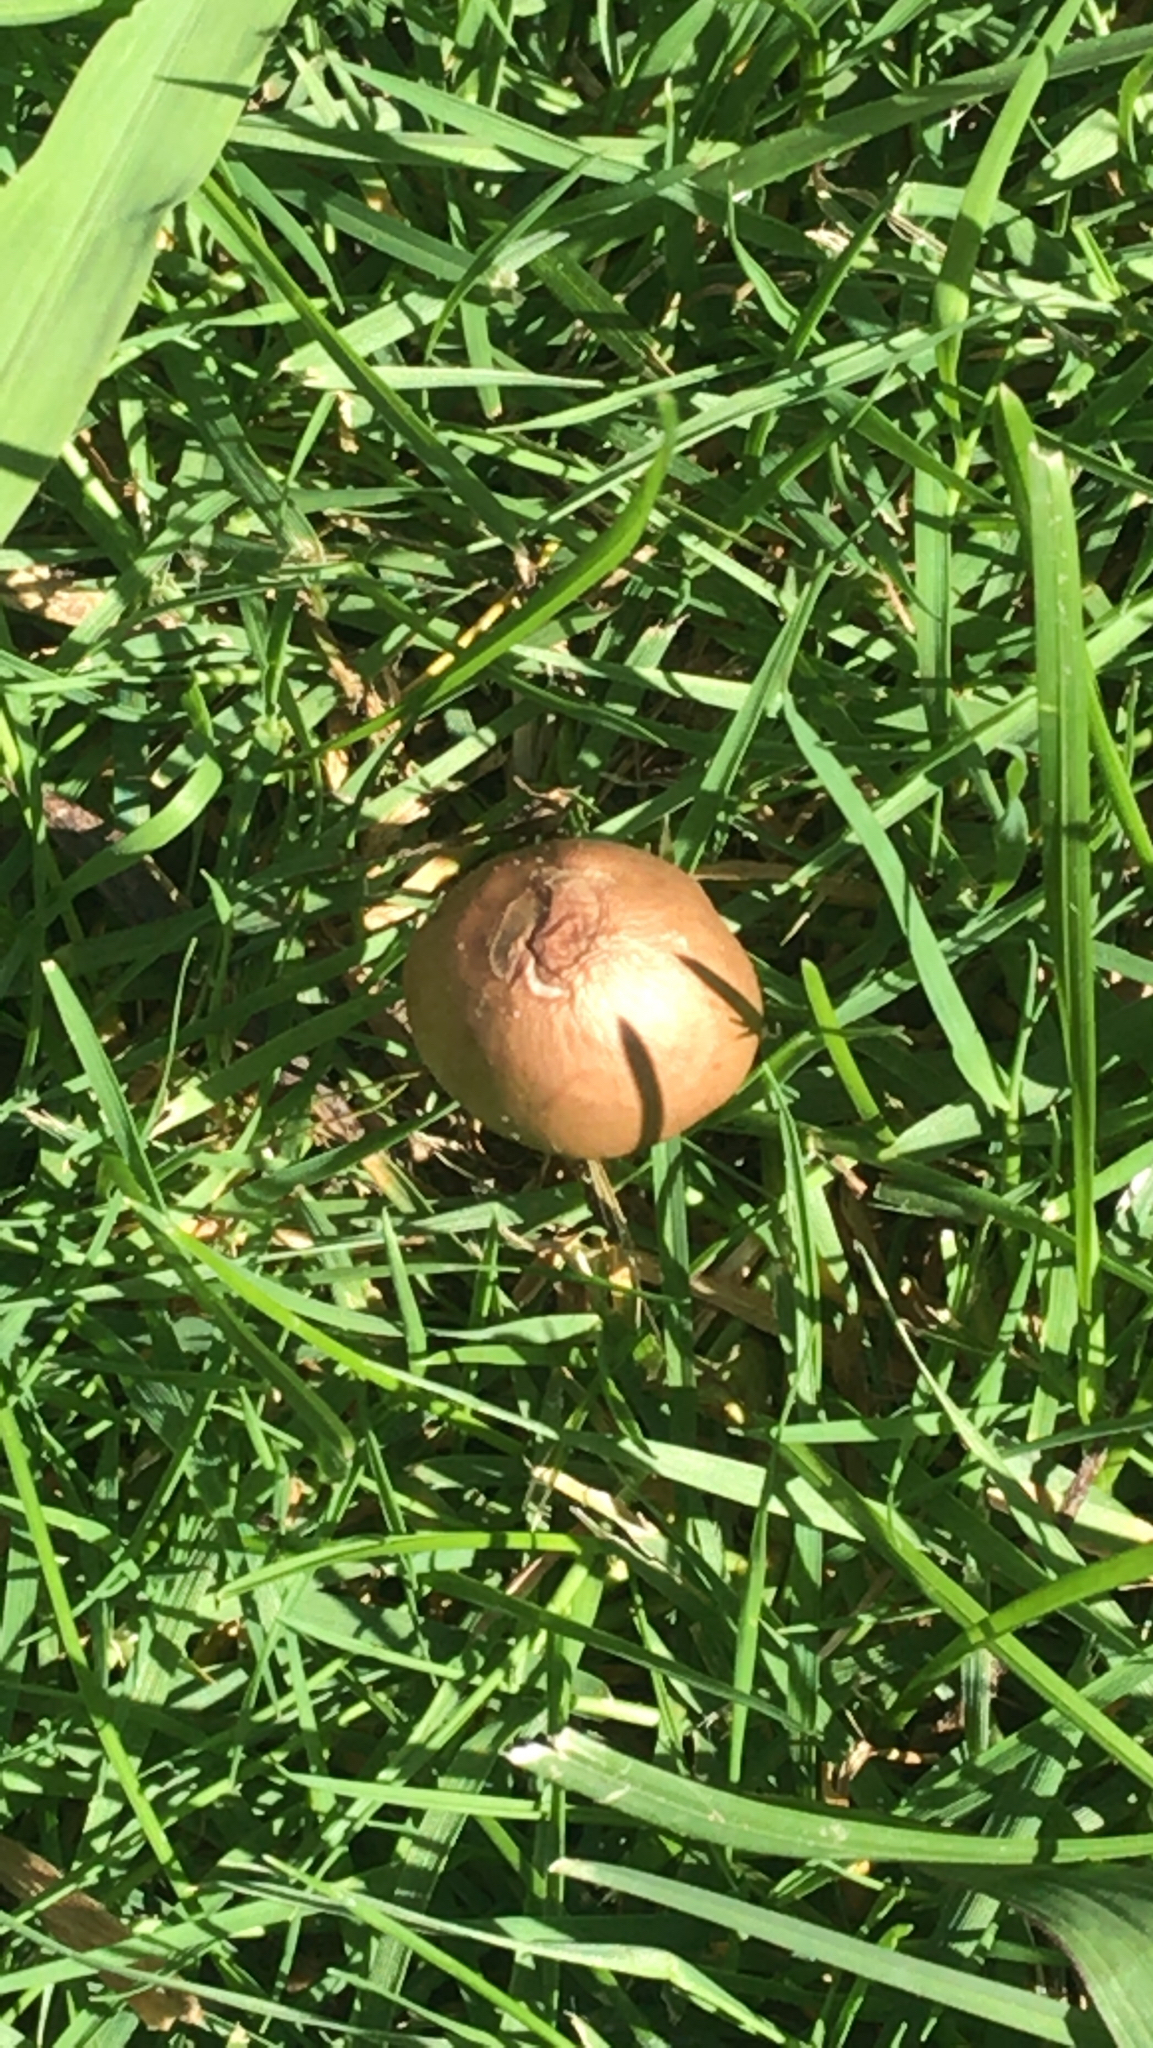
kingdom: Fungi
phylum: Basidiomycota
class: Agaricomycetes
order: Agaricales
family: Bolbitiaceae
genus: Panaeolina
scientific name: Panaeolina foenisecii
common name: Brown hay cap
